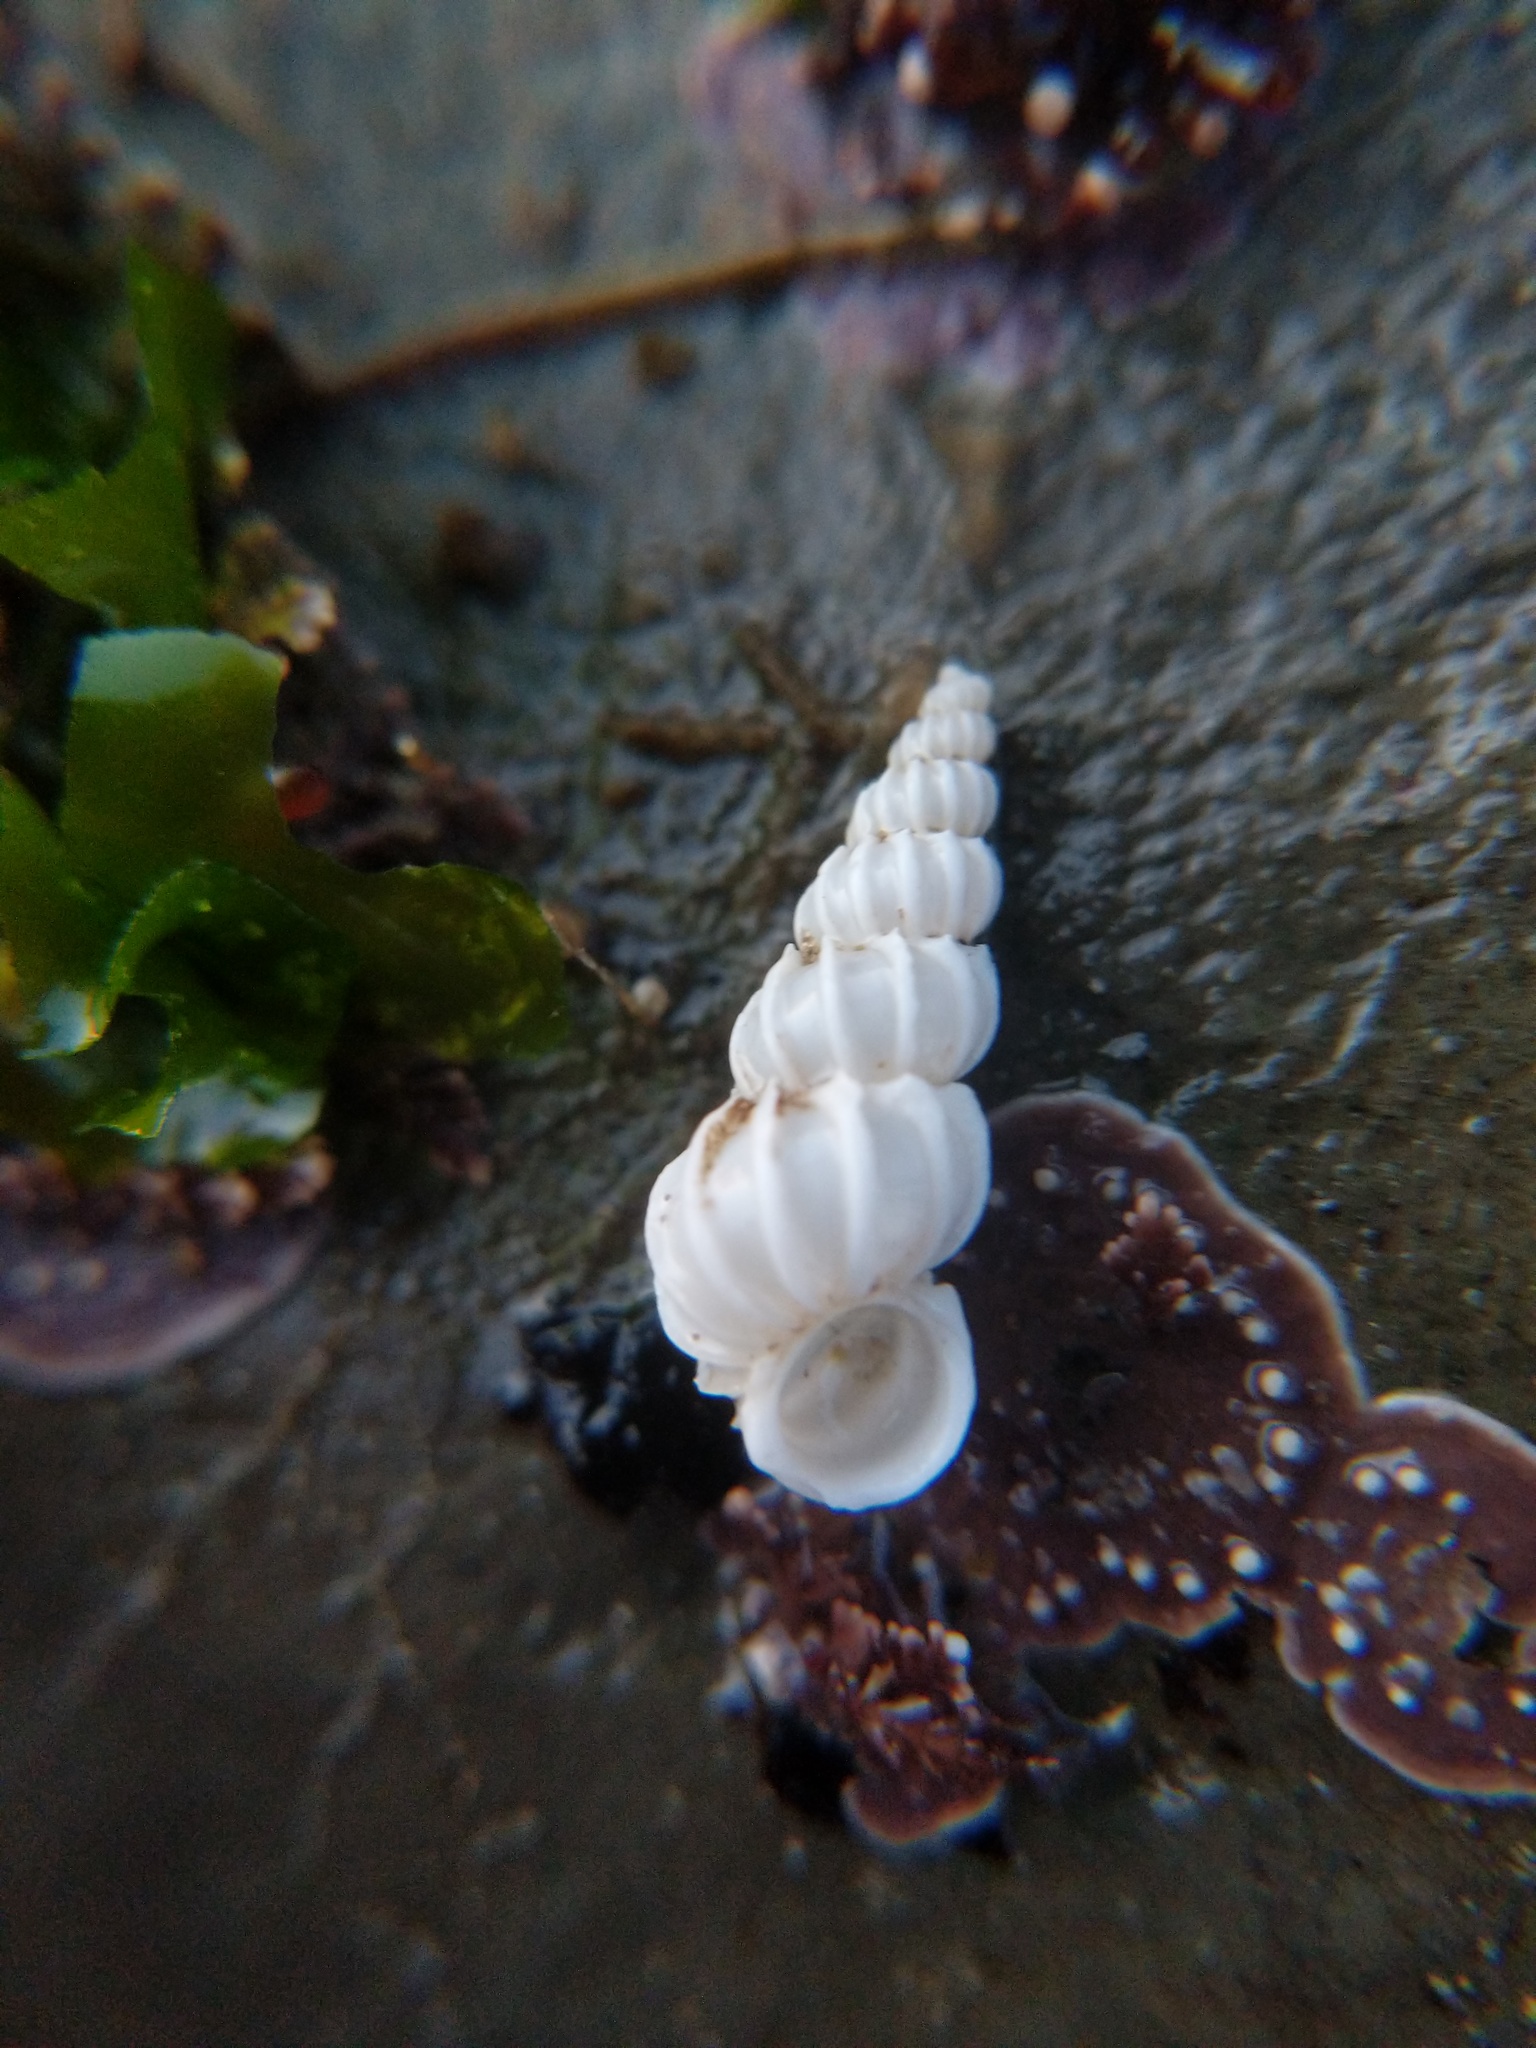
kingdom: Animalia
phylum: Mollusca
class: Gastropoda
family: Epitoniidae
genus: Epitonium
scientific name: Epitonium sawinae
